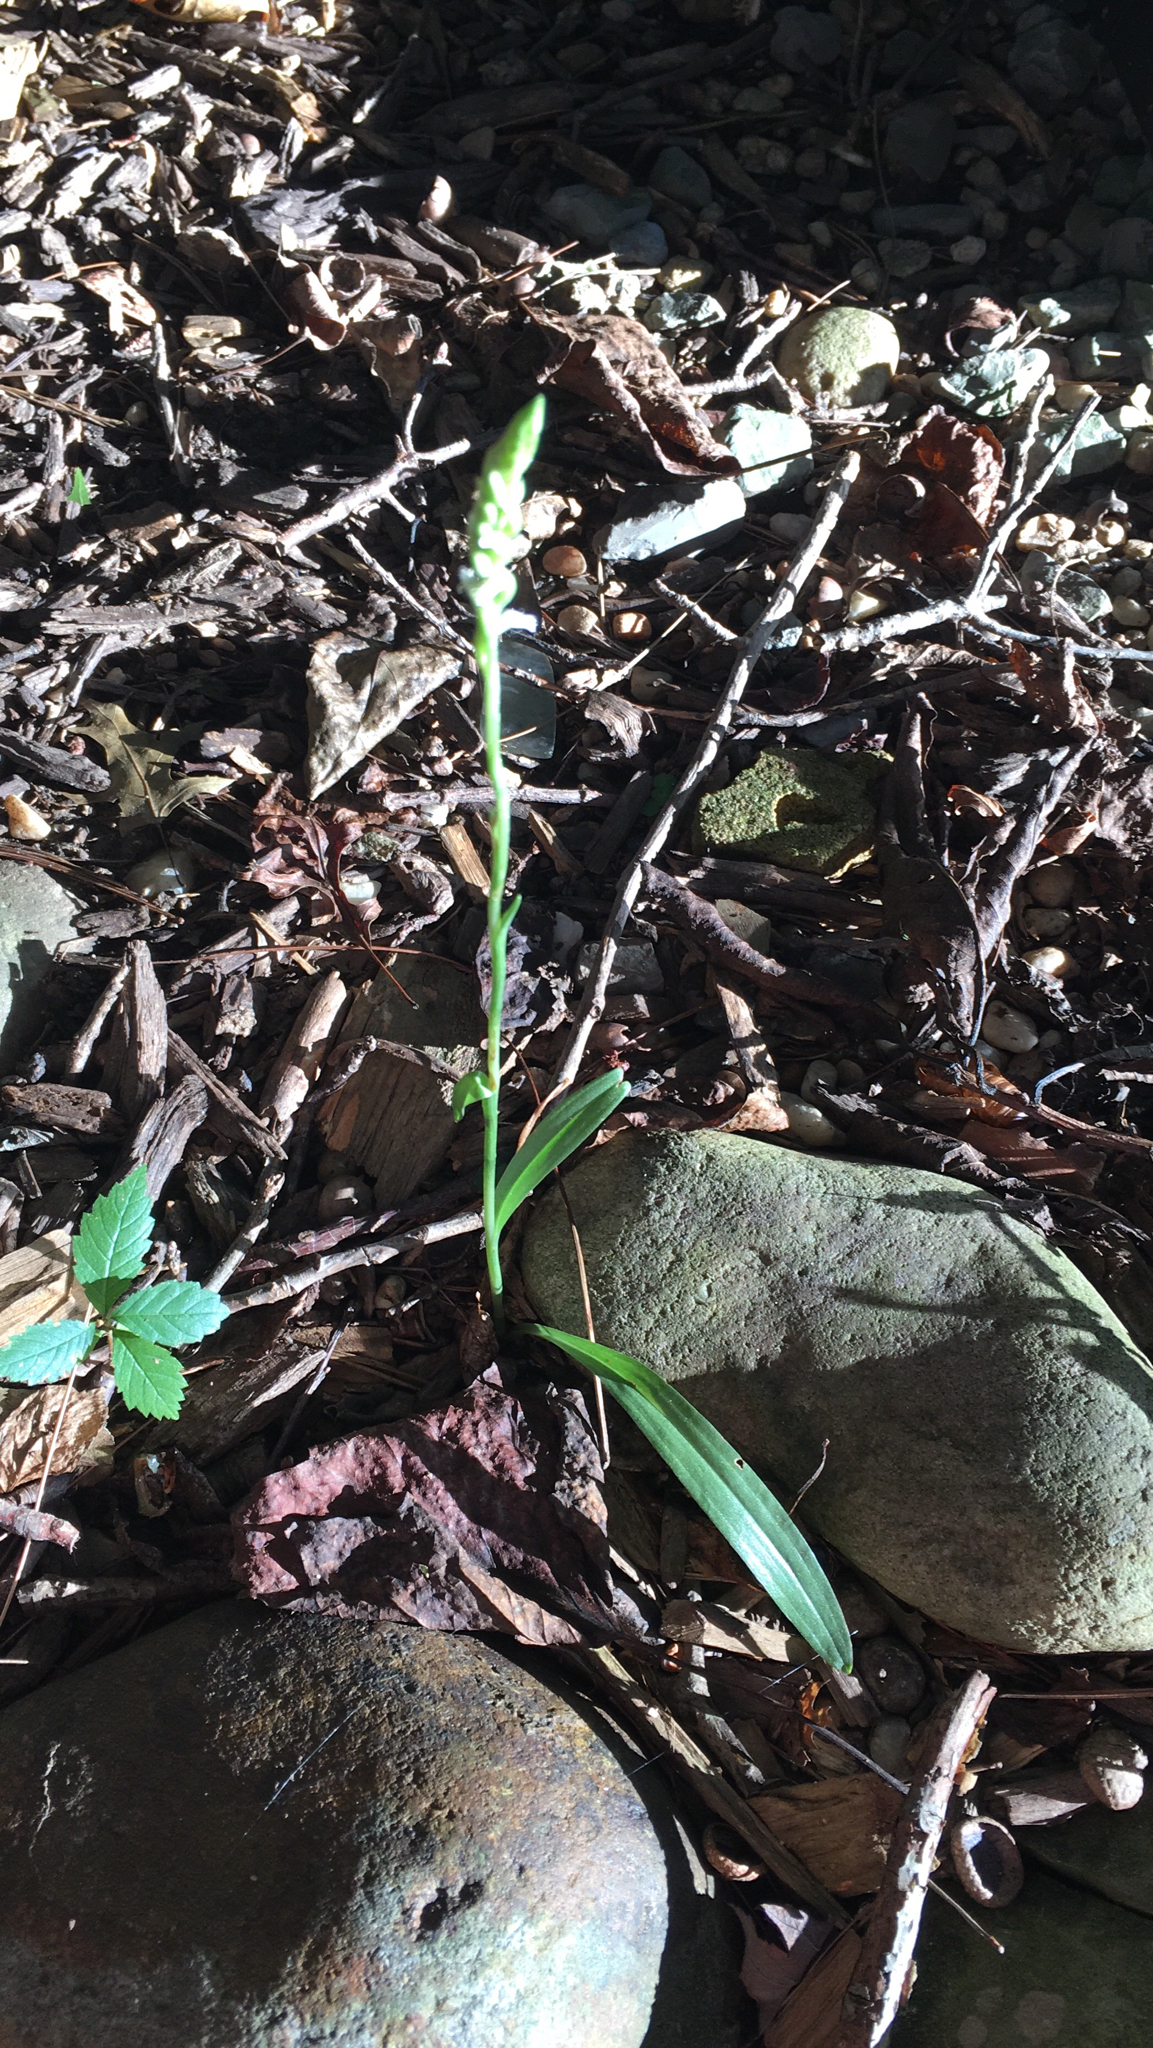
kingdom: Plantae
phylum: Tracheophyta
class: Liliopsida
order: Asparagales
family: Orchidaceae
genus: Spiranthes
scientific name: Spiranthes ovalis
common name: October ladies'-tresses
